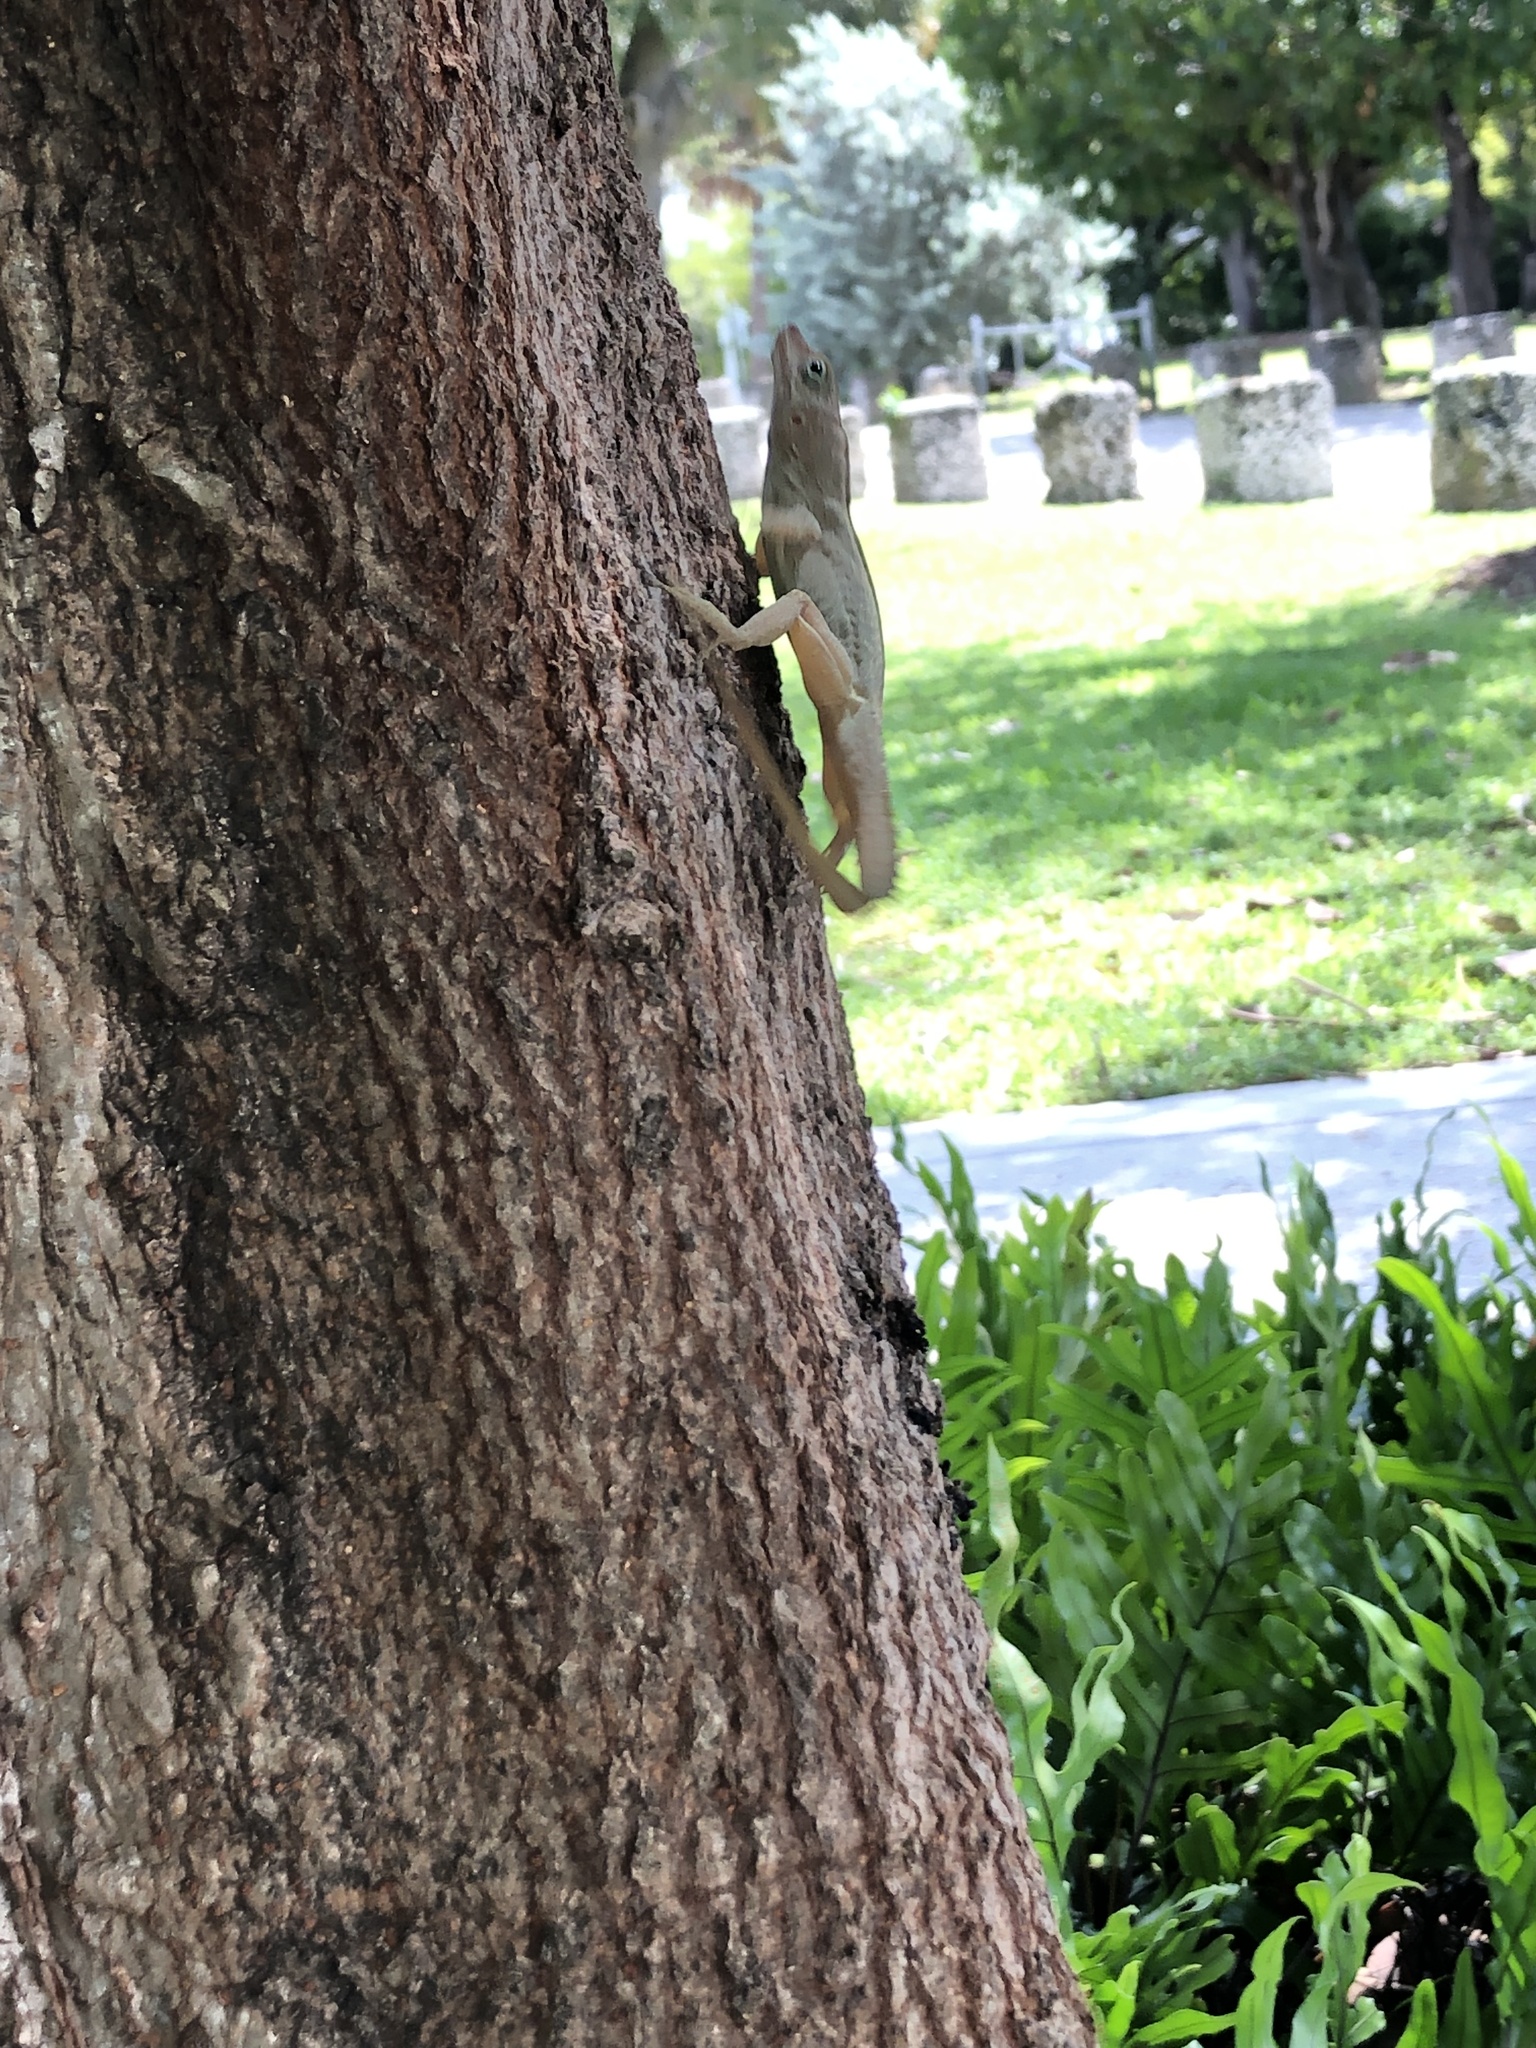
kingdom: Animalia
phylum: Chordata
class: Squamata
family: Dactyloidae
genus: Anolis
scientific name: Anolis cristatellus
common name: Crested anole
